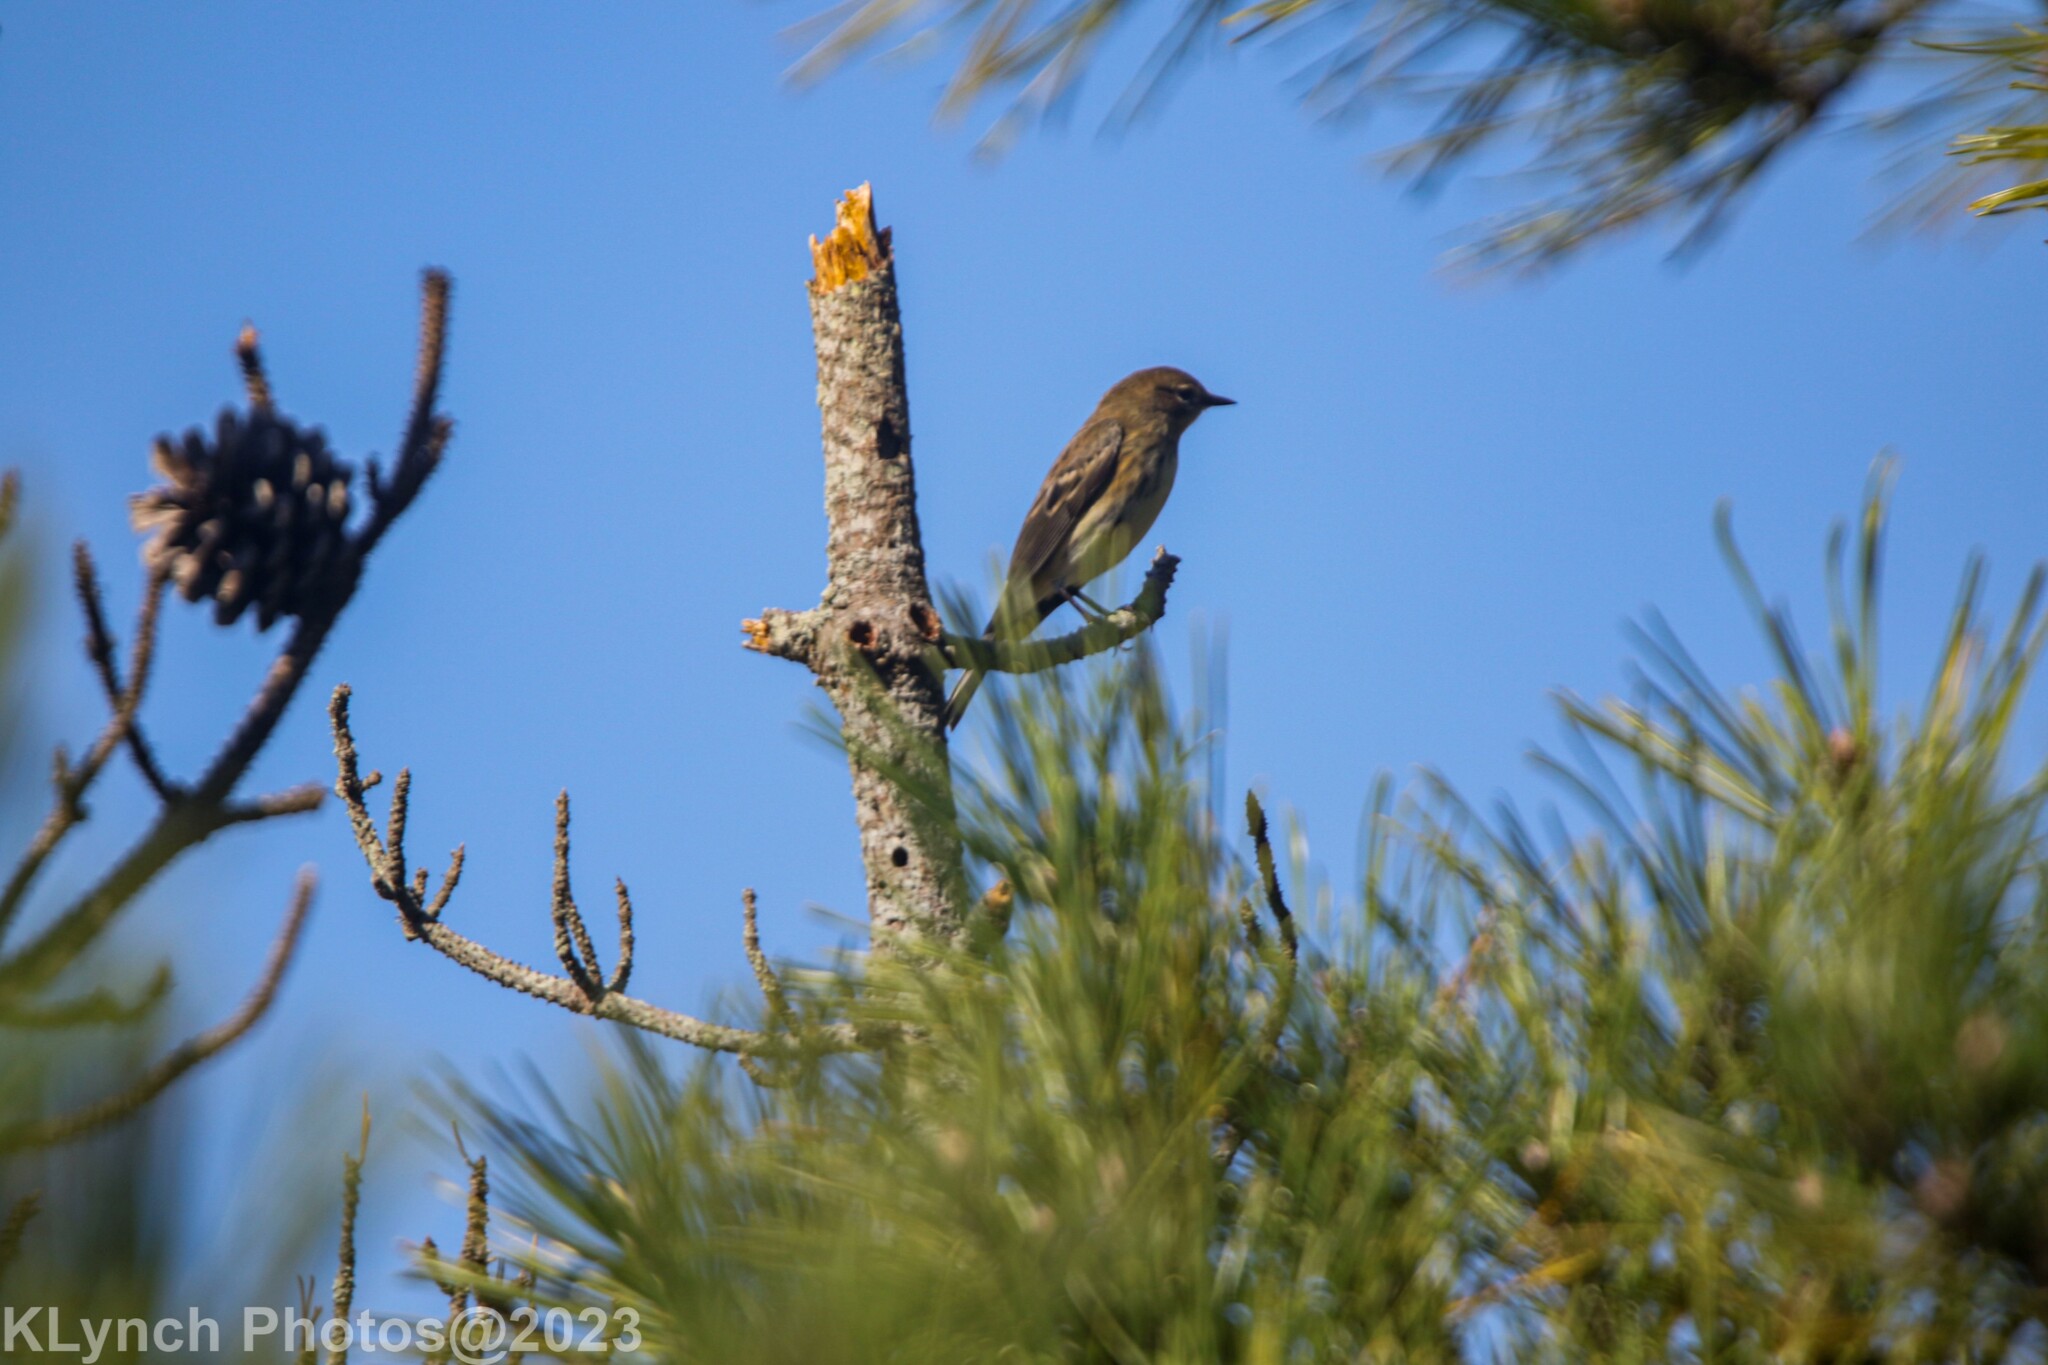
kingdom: Animalia
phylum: Chordata
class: Aves
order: Passeriformes
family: Parulidae
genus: Setophaga
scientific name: Setophaga coronata
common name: Myrtle warbler
